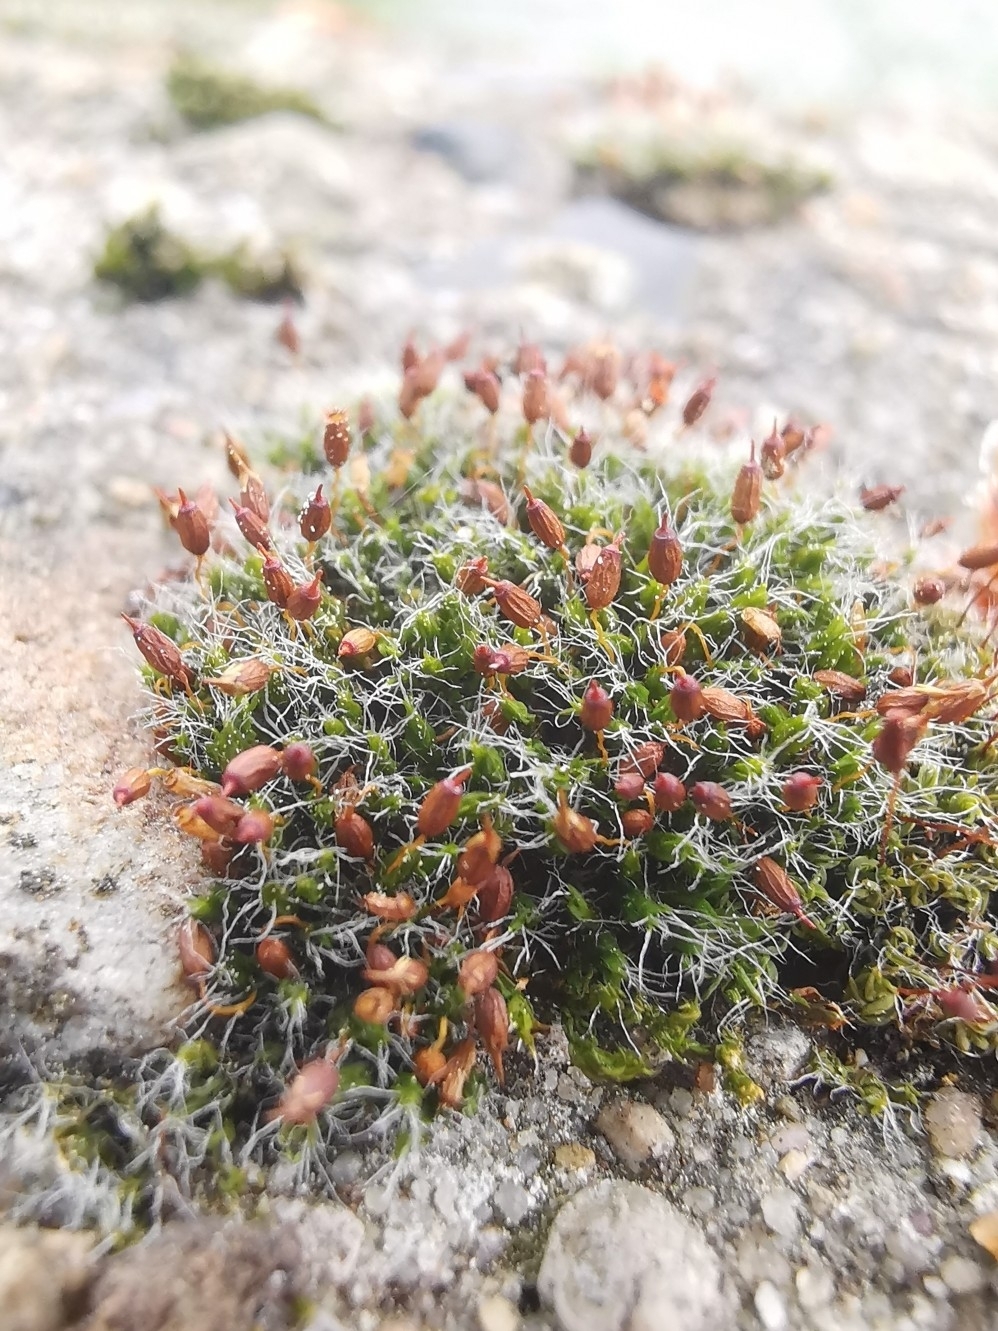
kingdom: Plantae
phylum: Bryophyta
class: Bryopsida
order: Grimmiales
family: Grimmiaceae
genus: Grimmia
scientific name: Grimmia pulvinata
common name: Grey-cushioned grimmia
